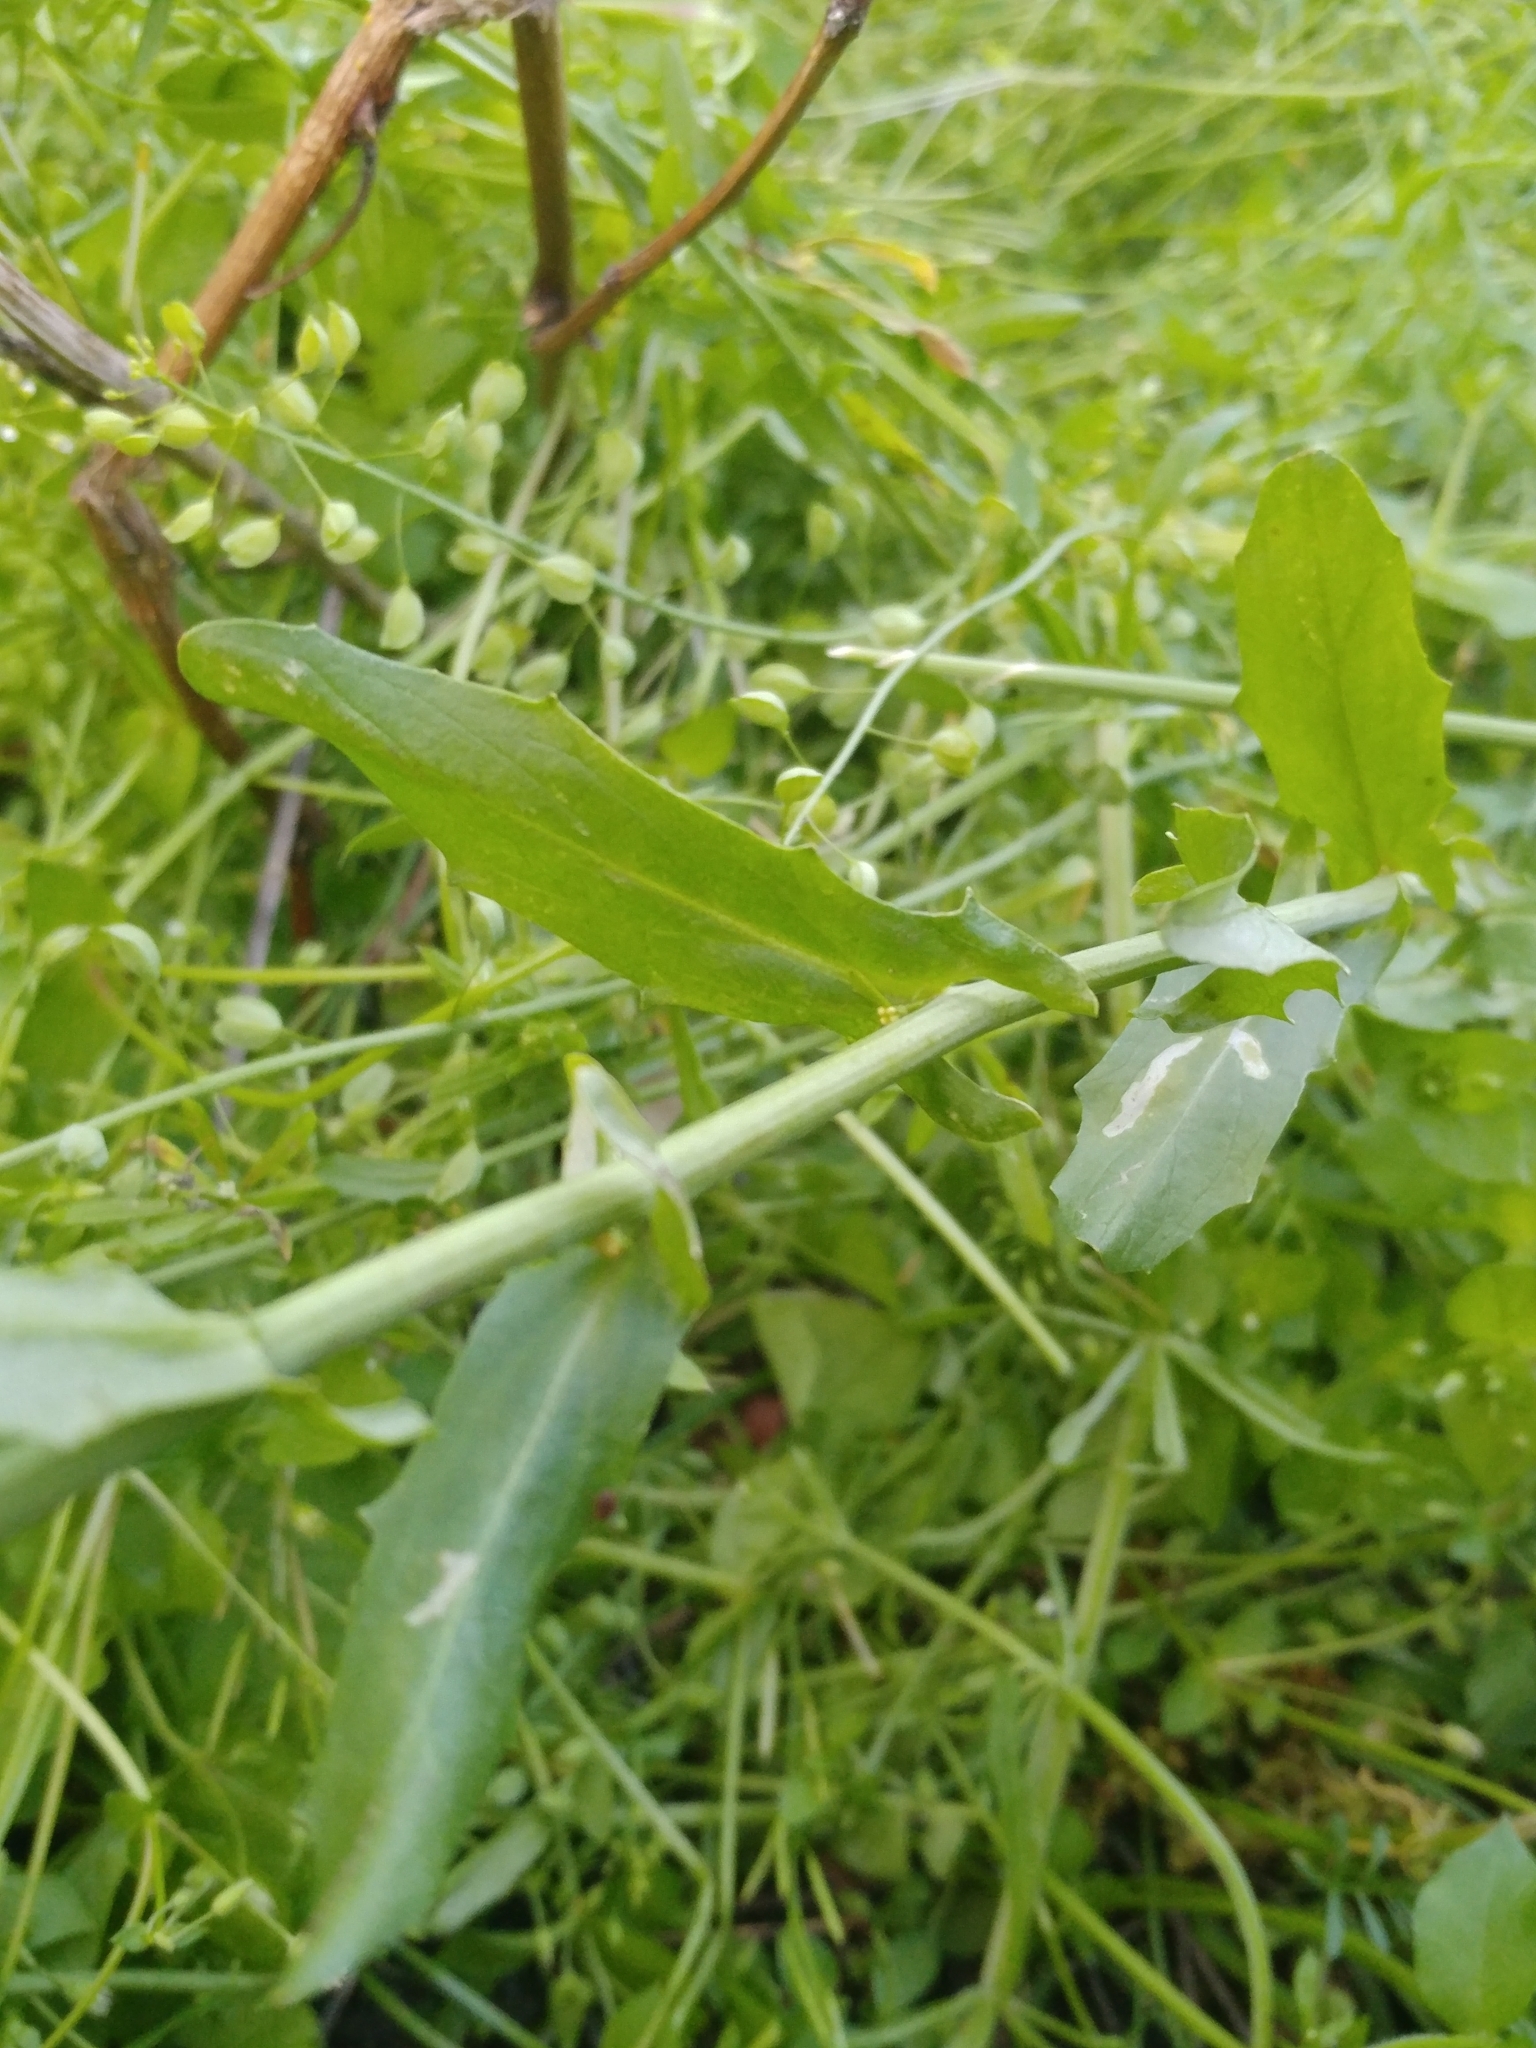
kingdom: Plantae
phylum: Tracheophyta
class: Magnoliopsida
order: Brassicales
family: Brassicaceae
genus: Mummenhoffia
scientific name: Mummenhoffia alliacea
